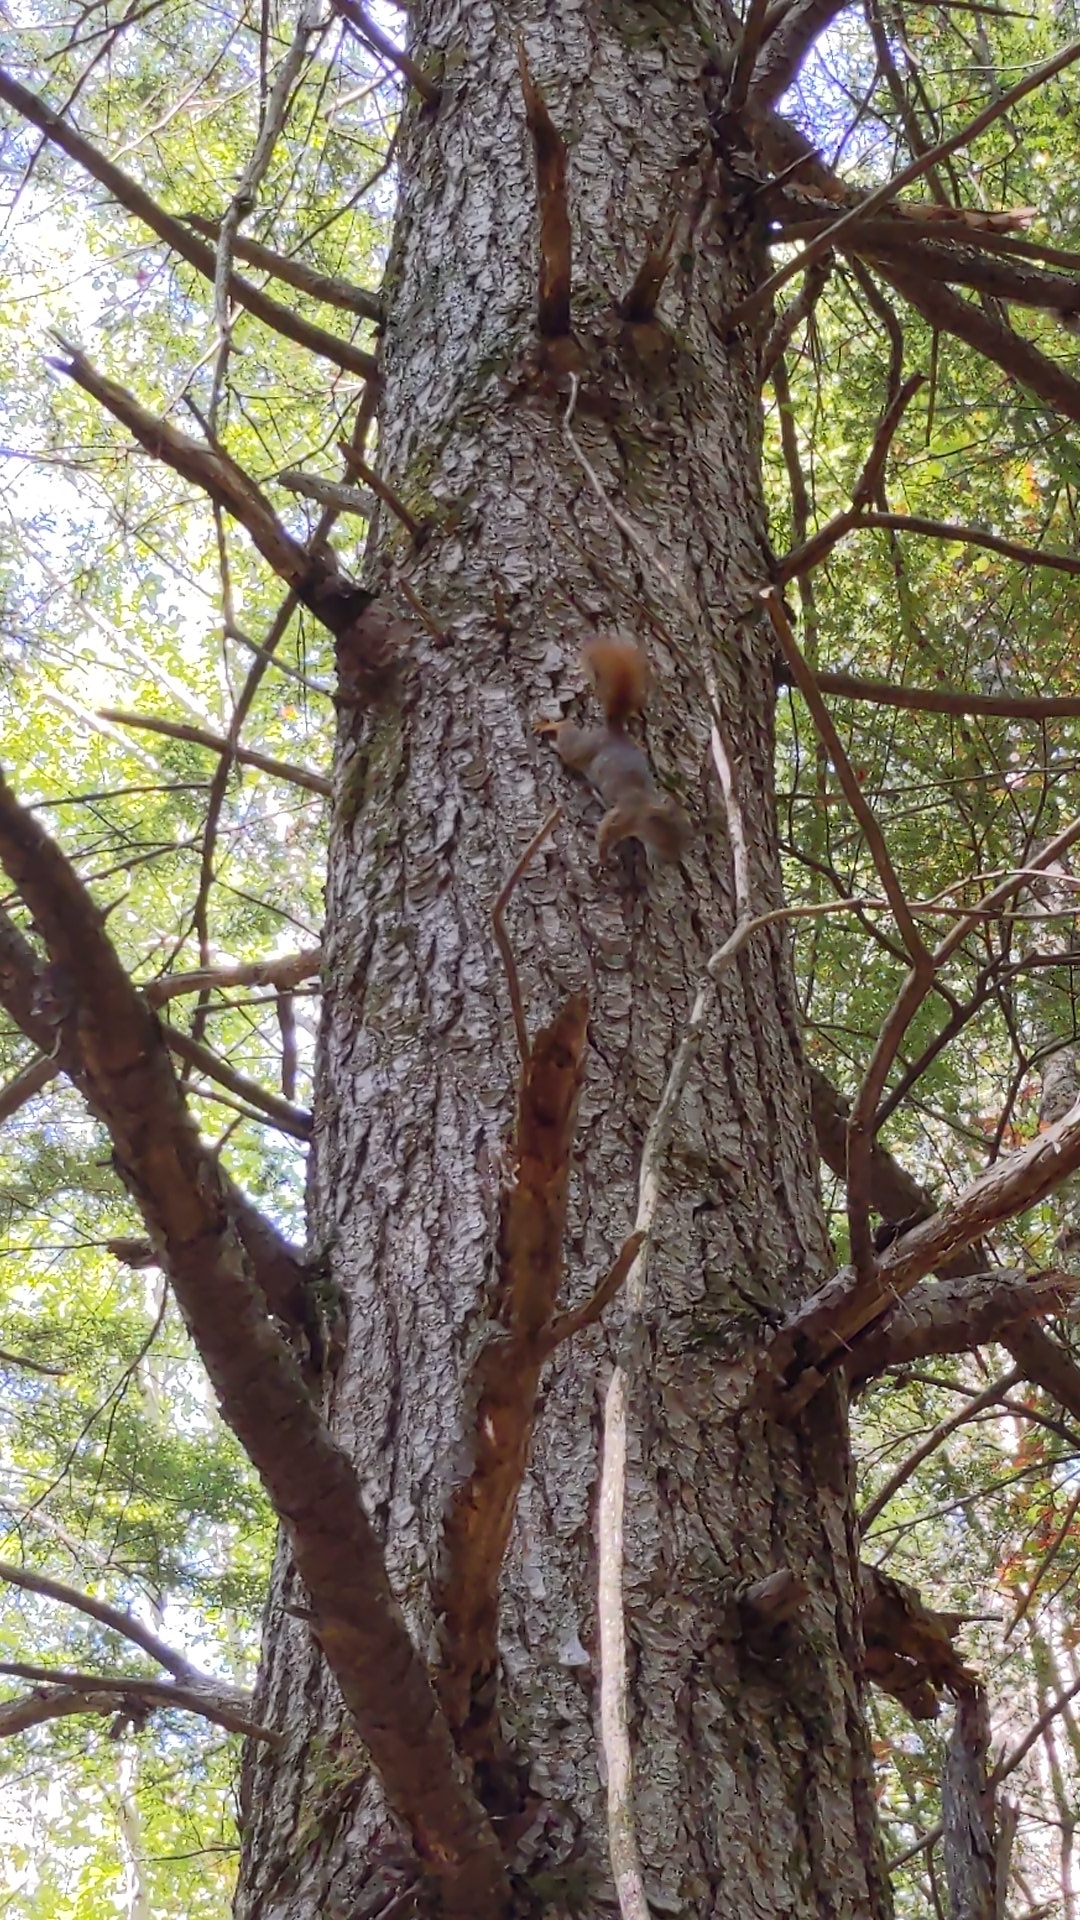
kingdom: Animalia
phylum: Chordata
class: Mammalia
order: Rodentia
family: Sciuridae
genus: Tamiasciurus
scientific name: Tamiasciurus hudsonicus
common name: Red squirrel
